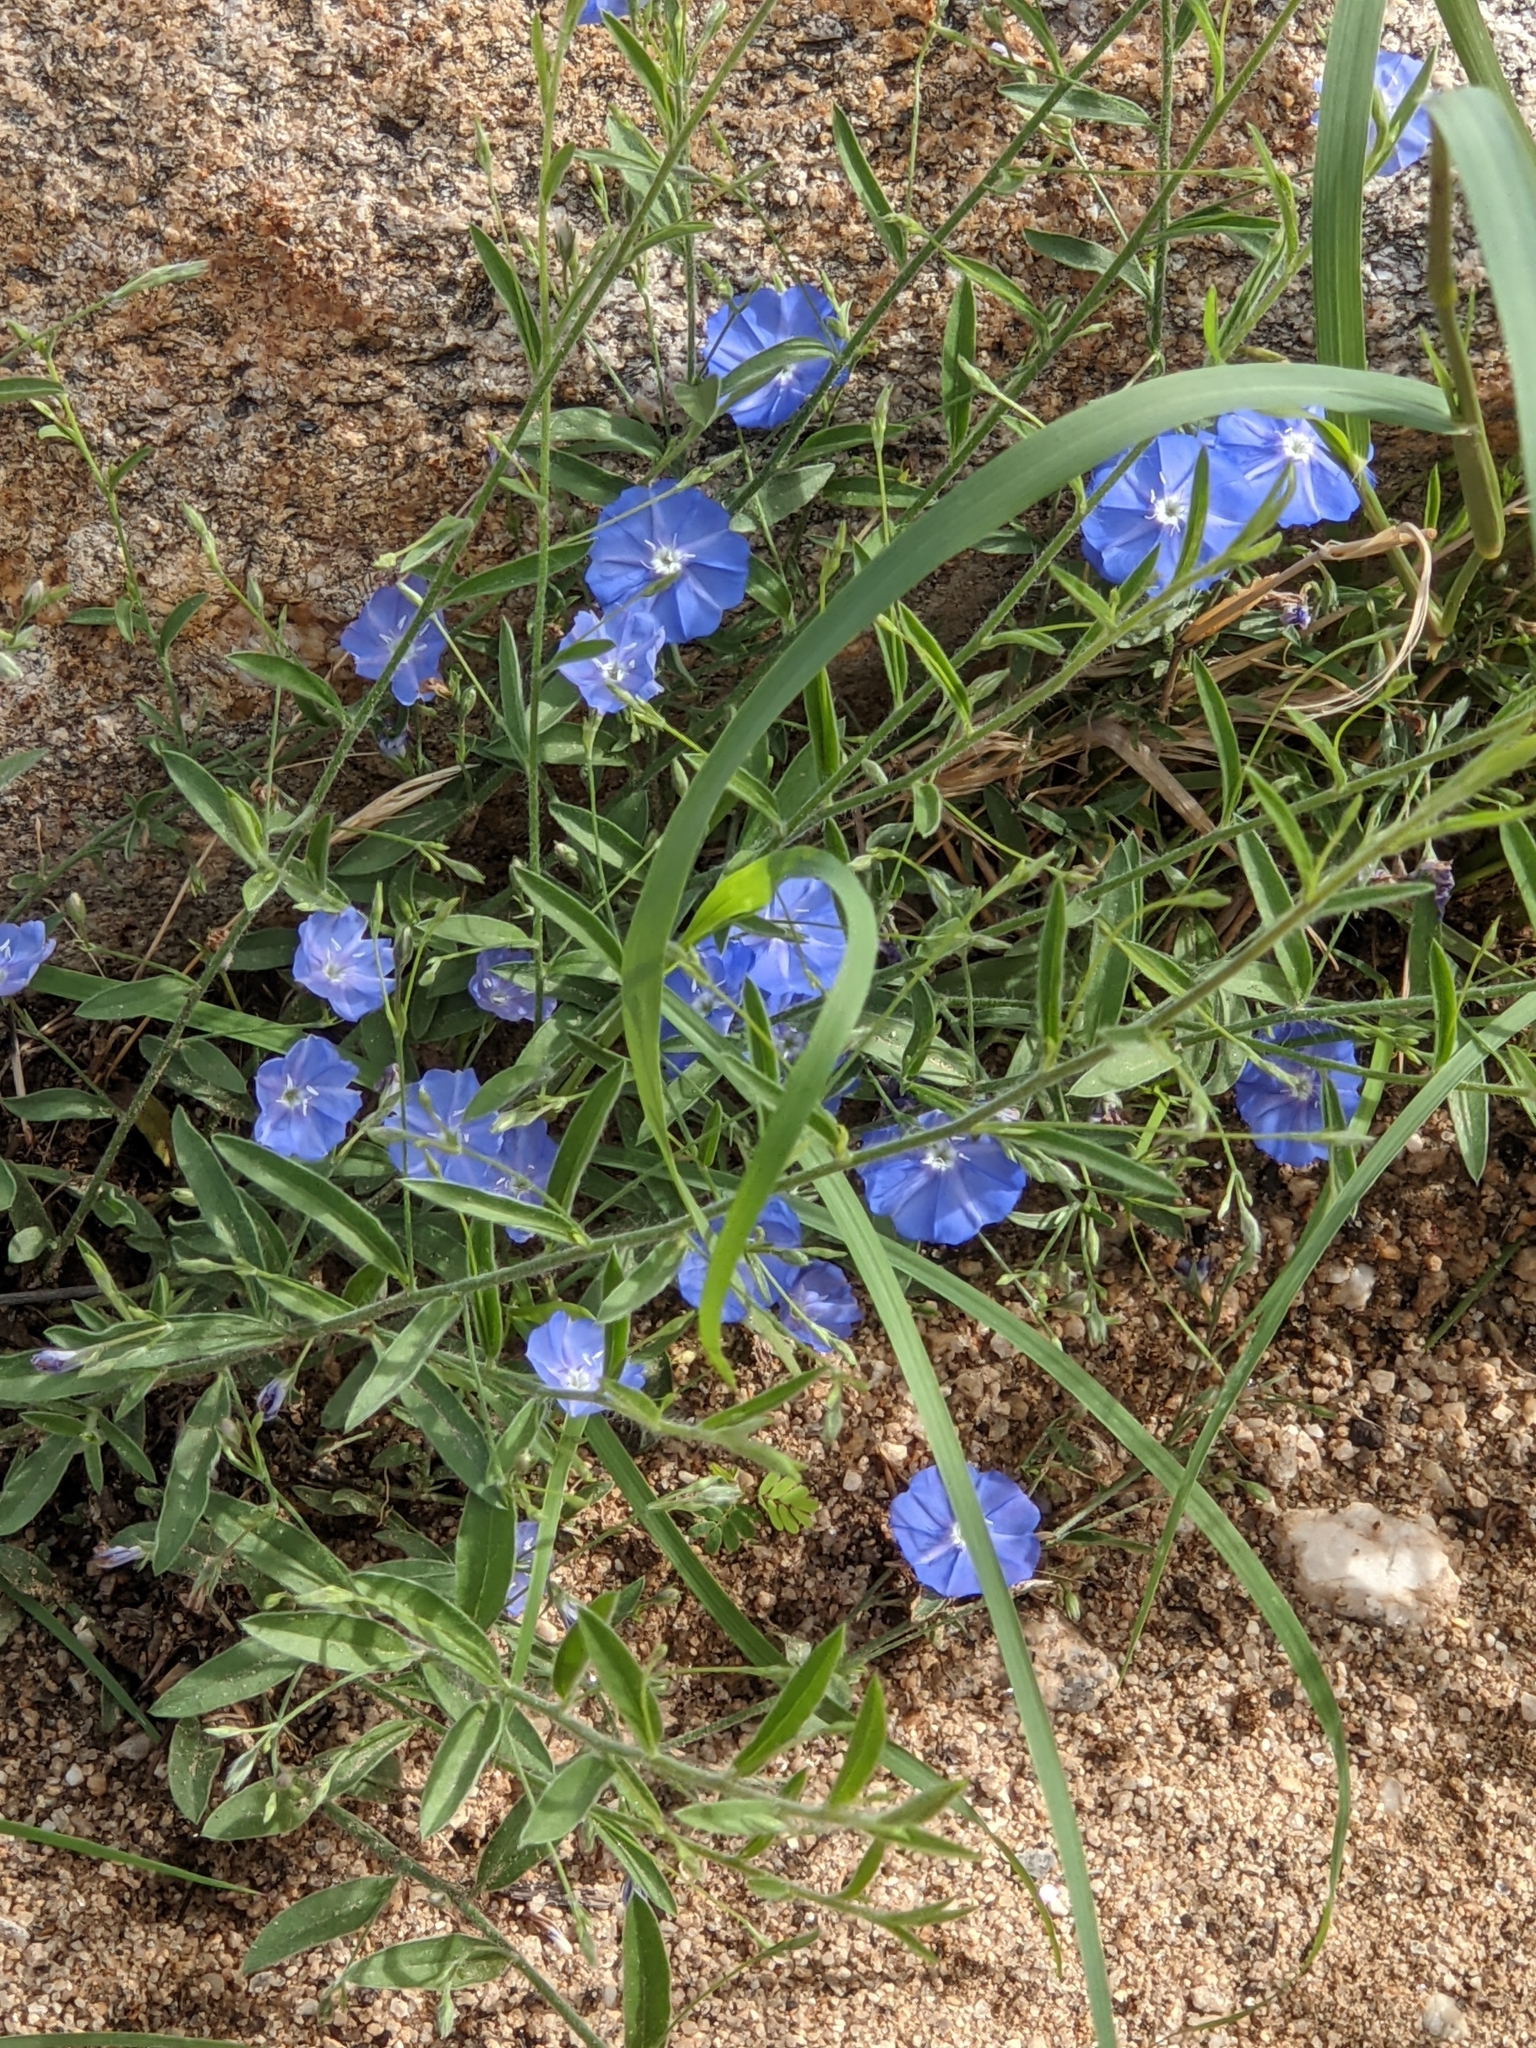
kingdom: Plantae
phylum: Tracheophyta
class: Magnoliopsida
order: Solanales
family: Convolvulaceae
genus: Evolvulus
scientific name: Evolvulus alsinoides
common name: Slender dwarf morning-glory
